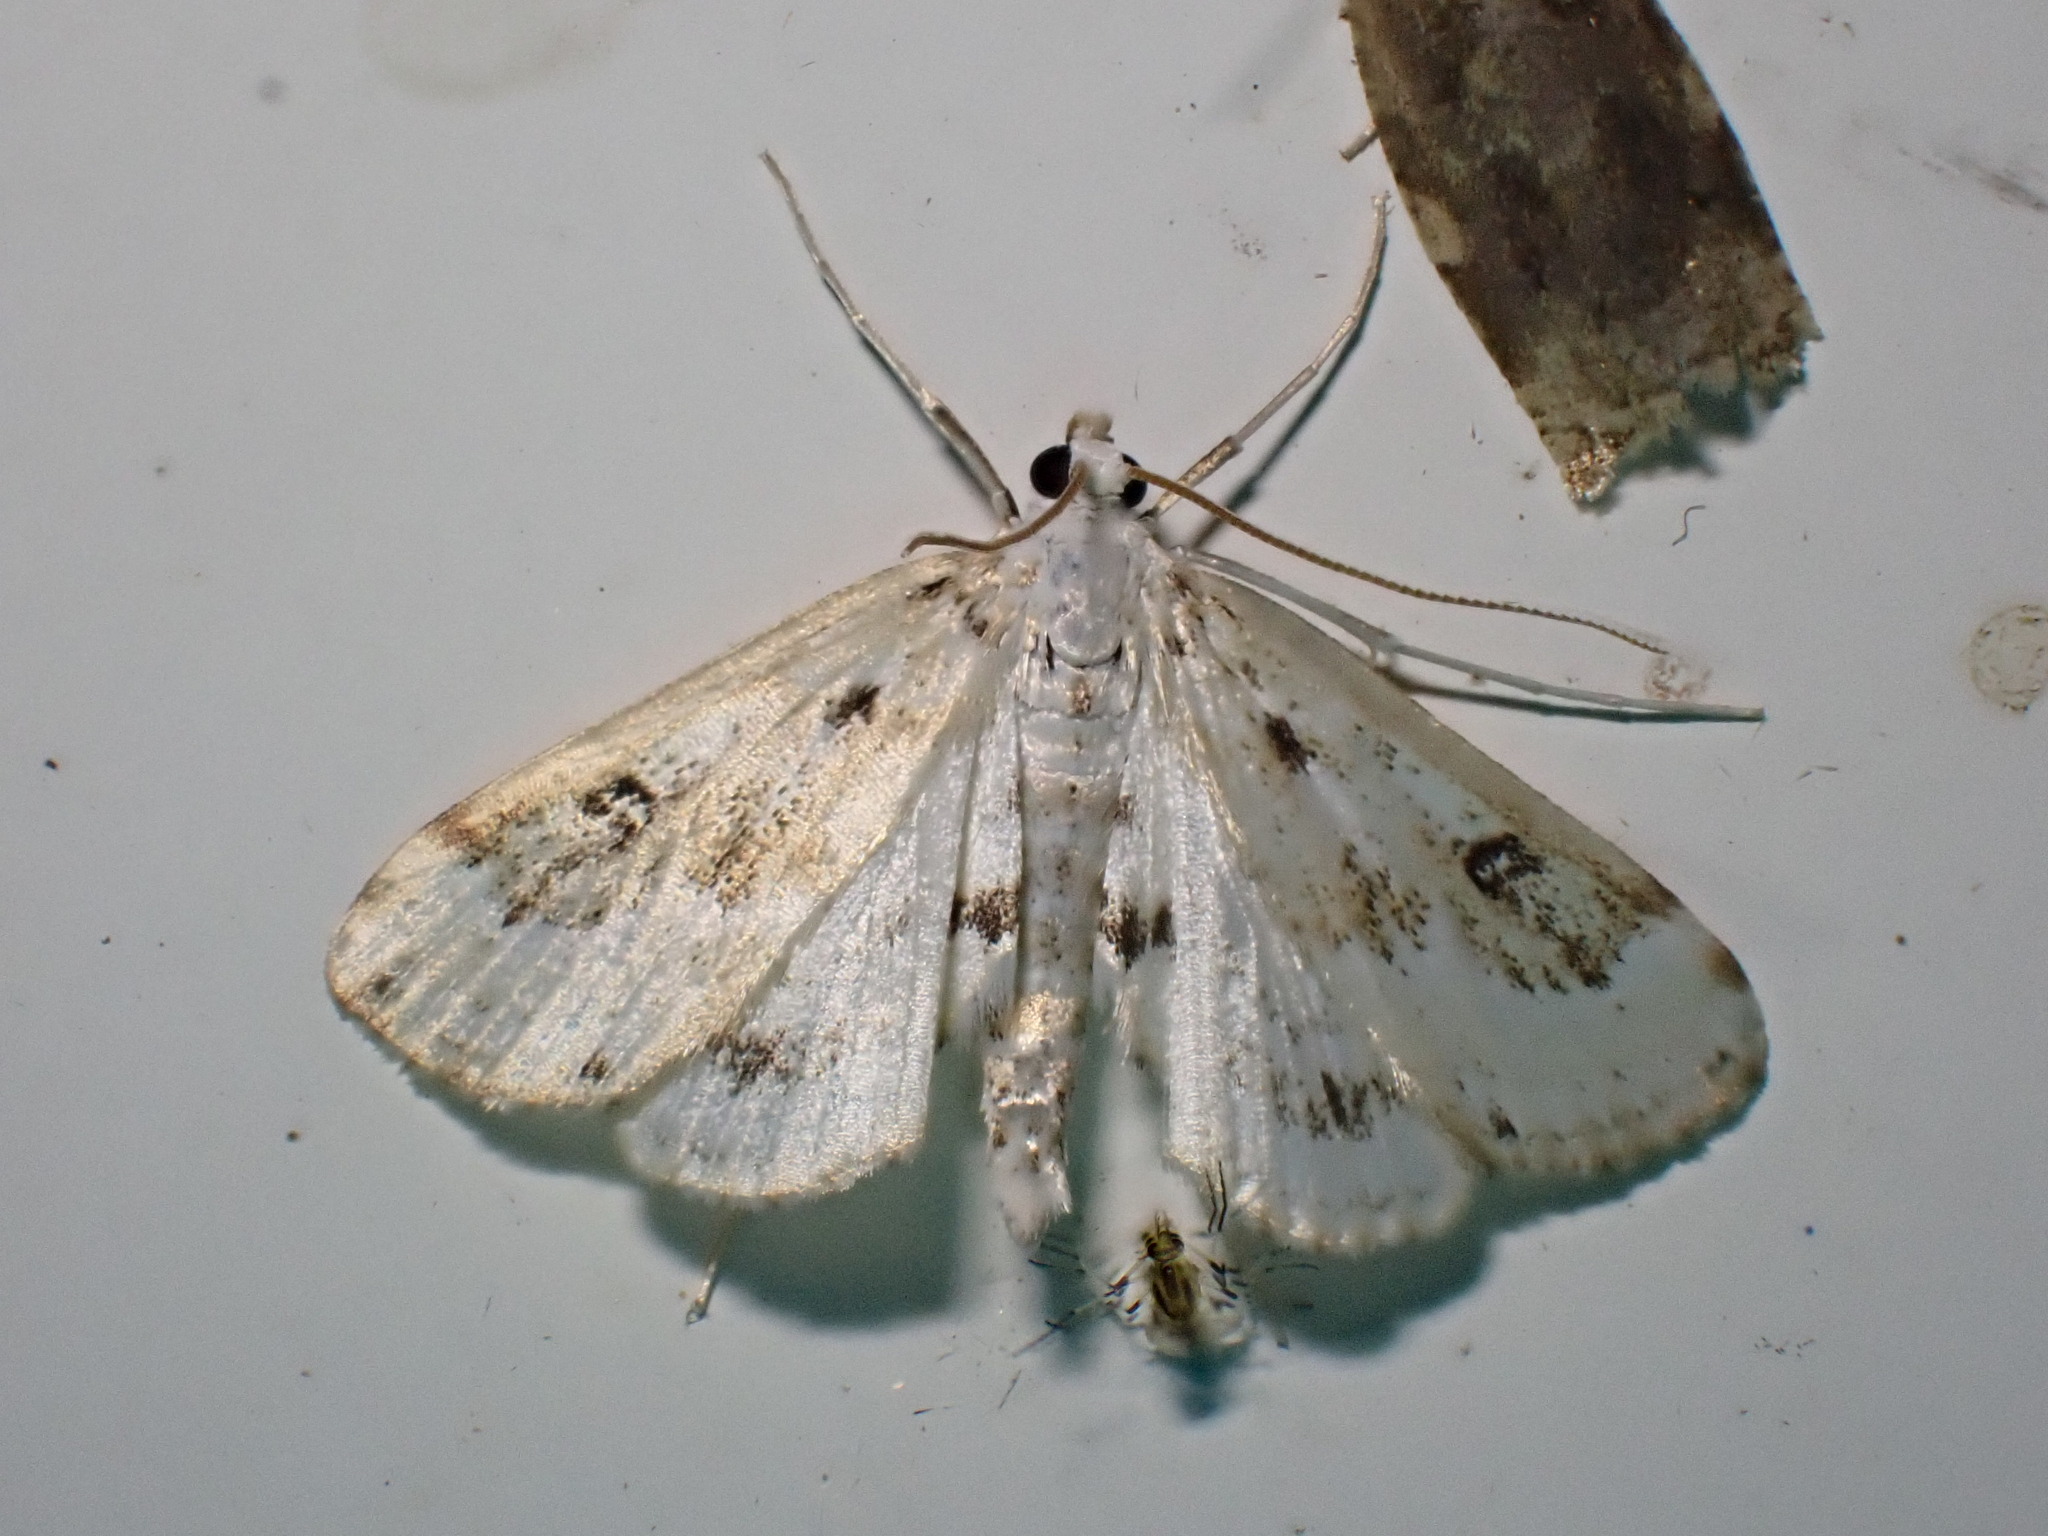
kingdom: Animalia
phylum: Arthropoda
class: Insecta
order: Lepidoptera
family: Crambidae
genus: Parapoynx
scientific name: Parapoynx stratiotata
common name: Ringed china-mark
